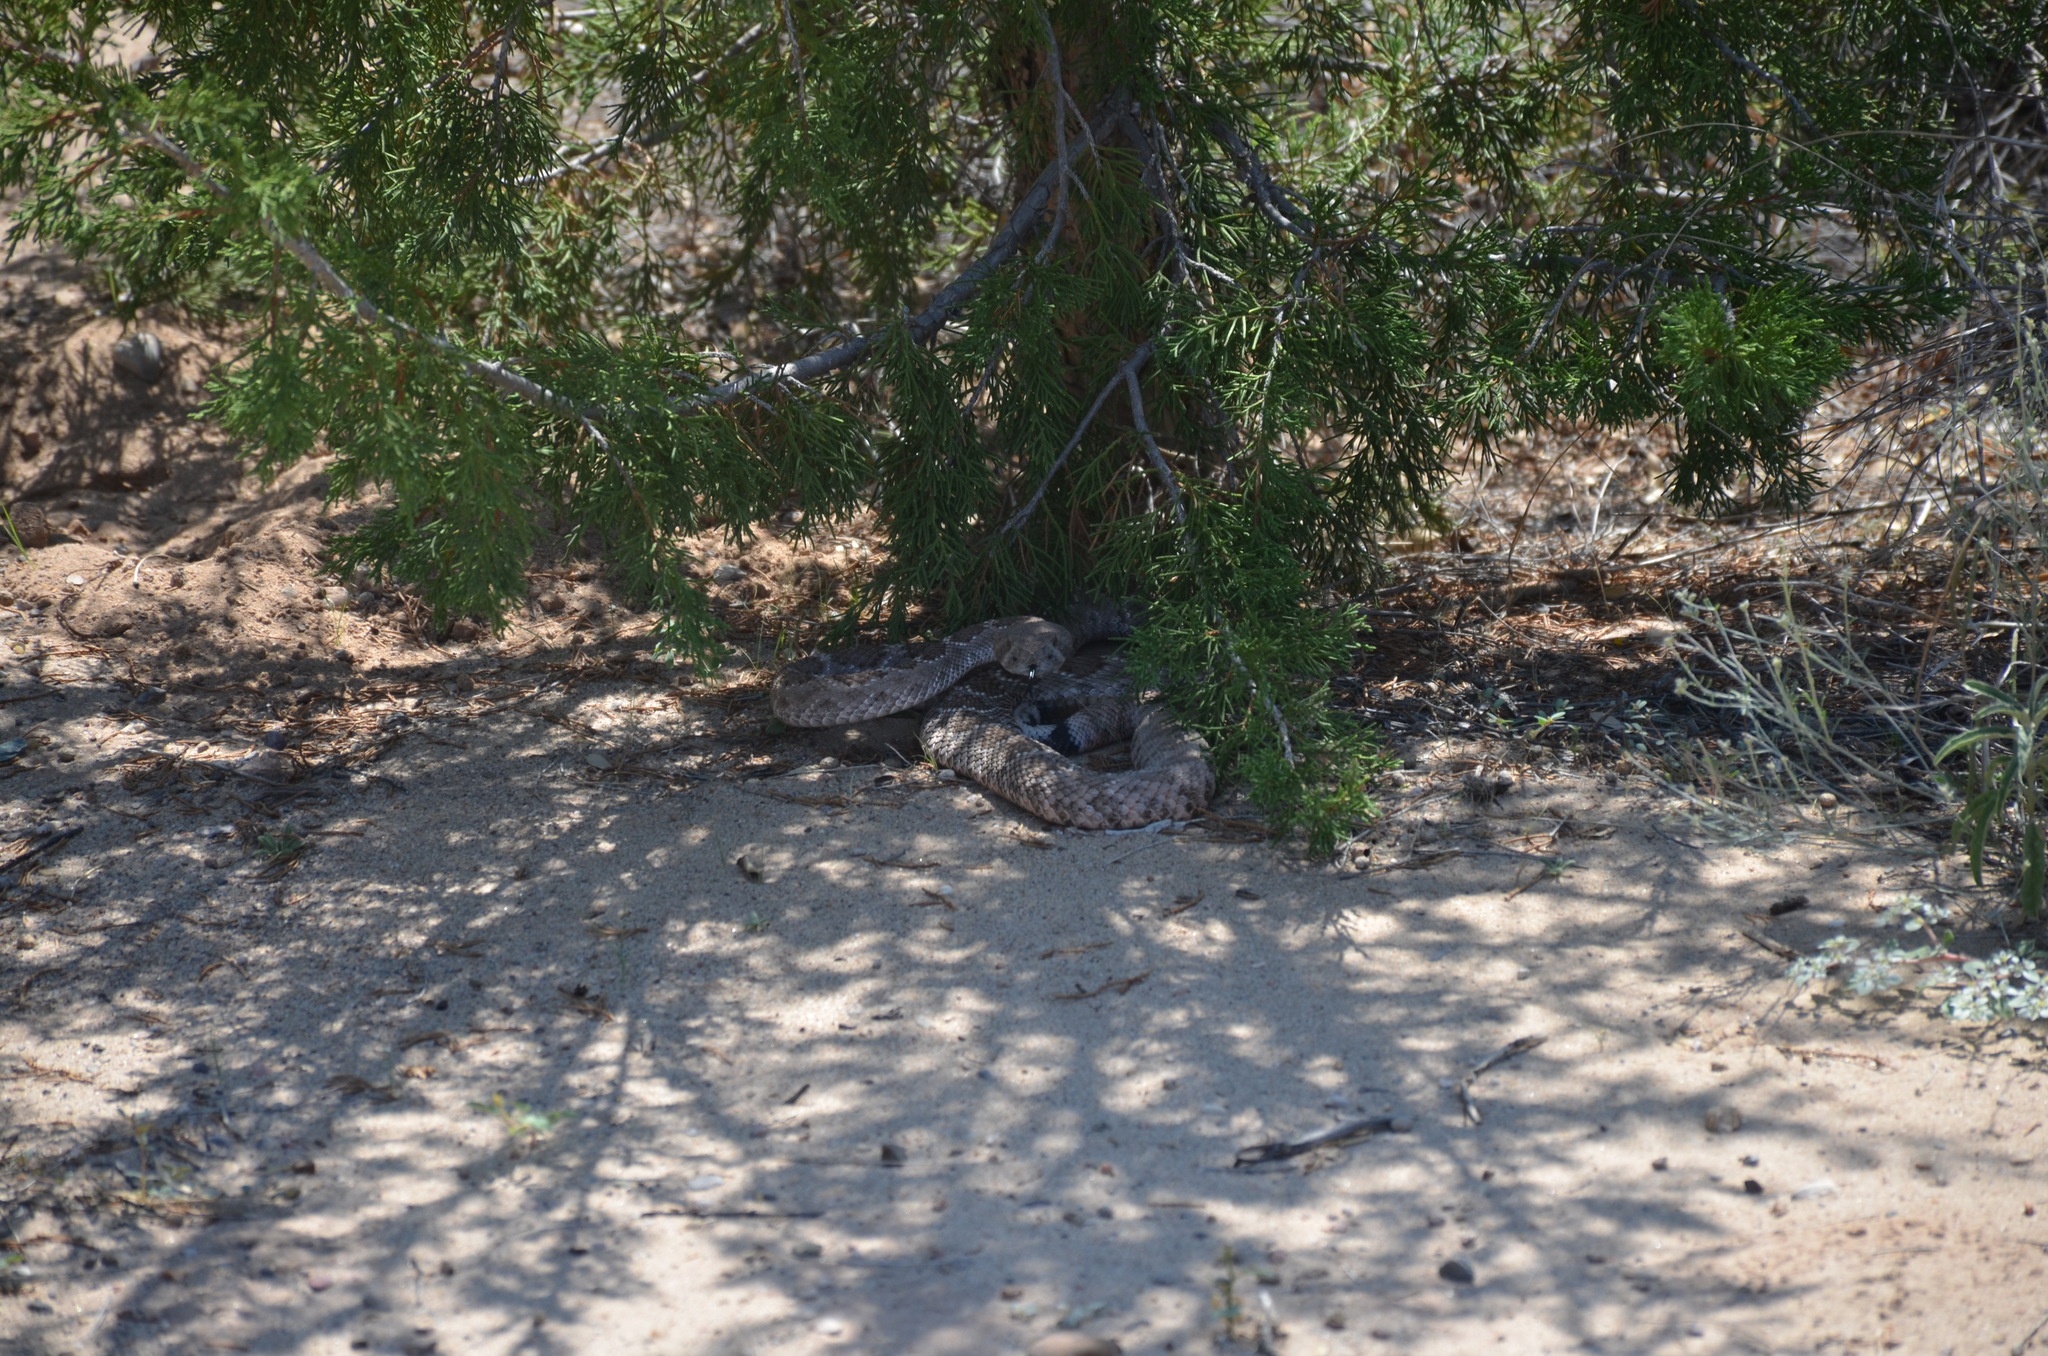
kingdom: Animalia
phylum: Chordata
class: Squamata
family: Viperidae
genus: Crotalus
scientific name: Crotalus atrox
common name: Western diamond-backed rattlesnake
